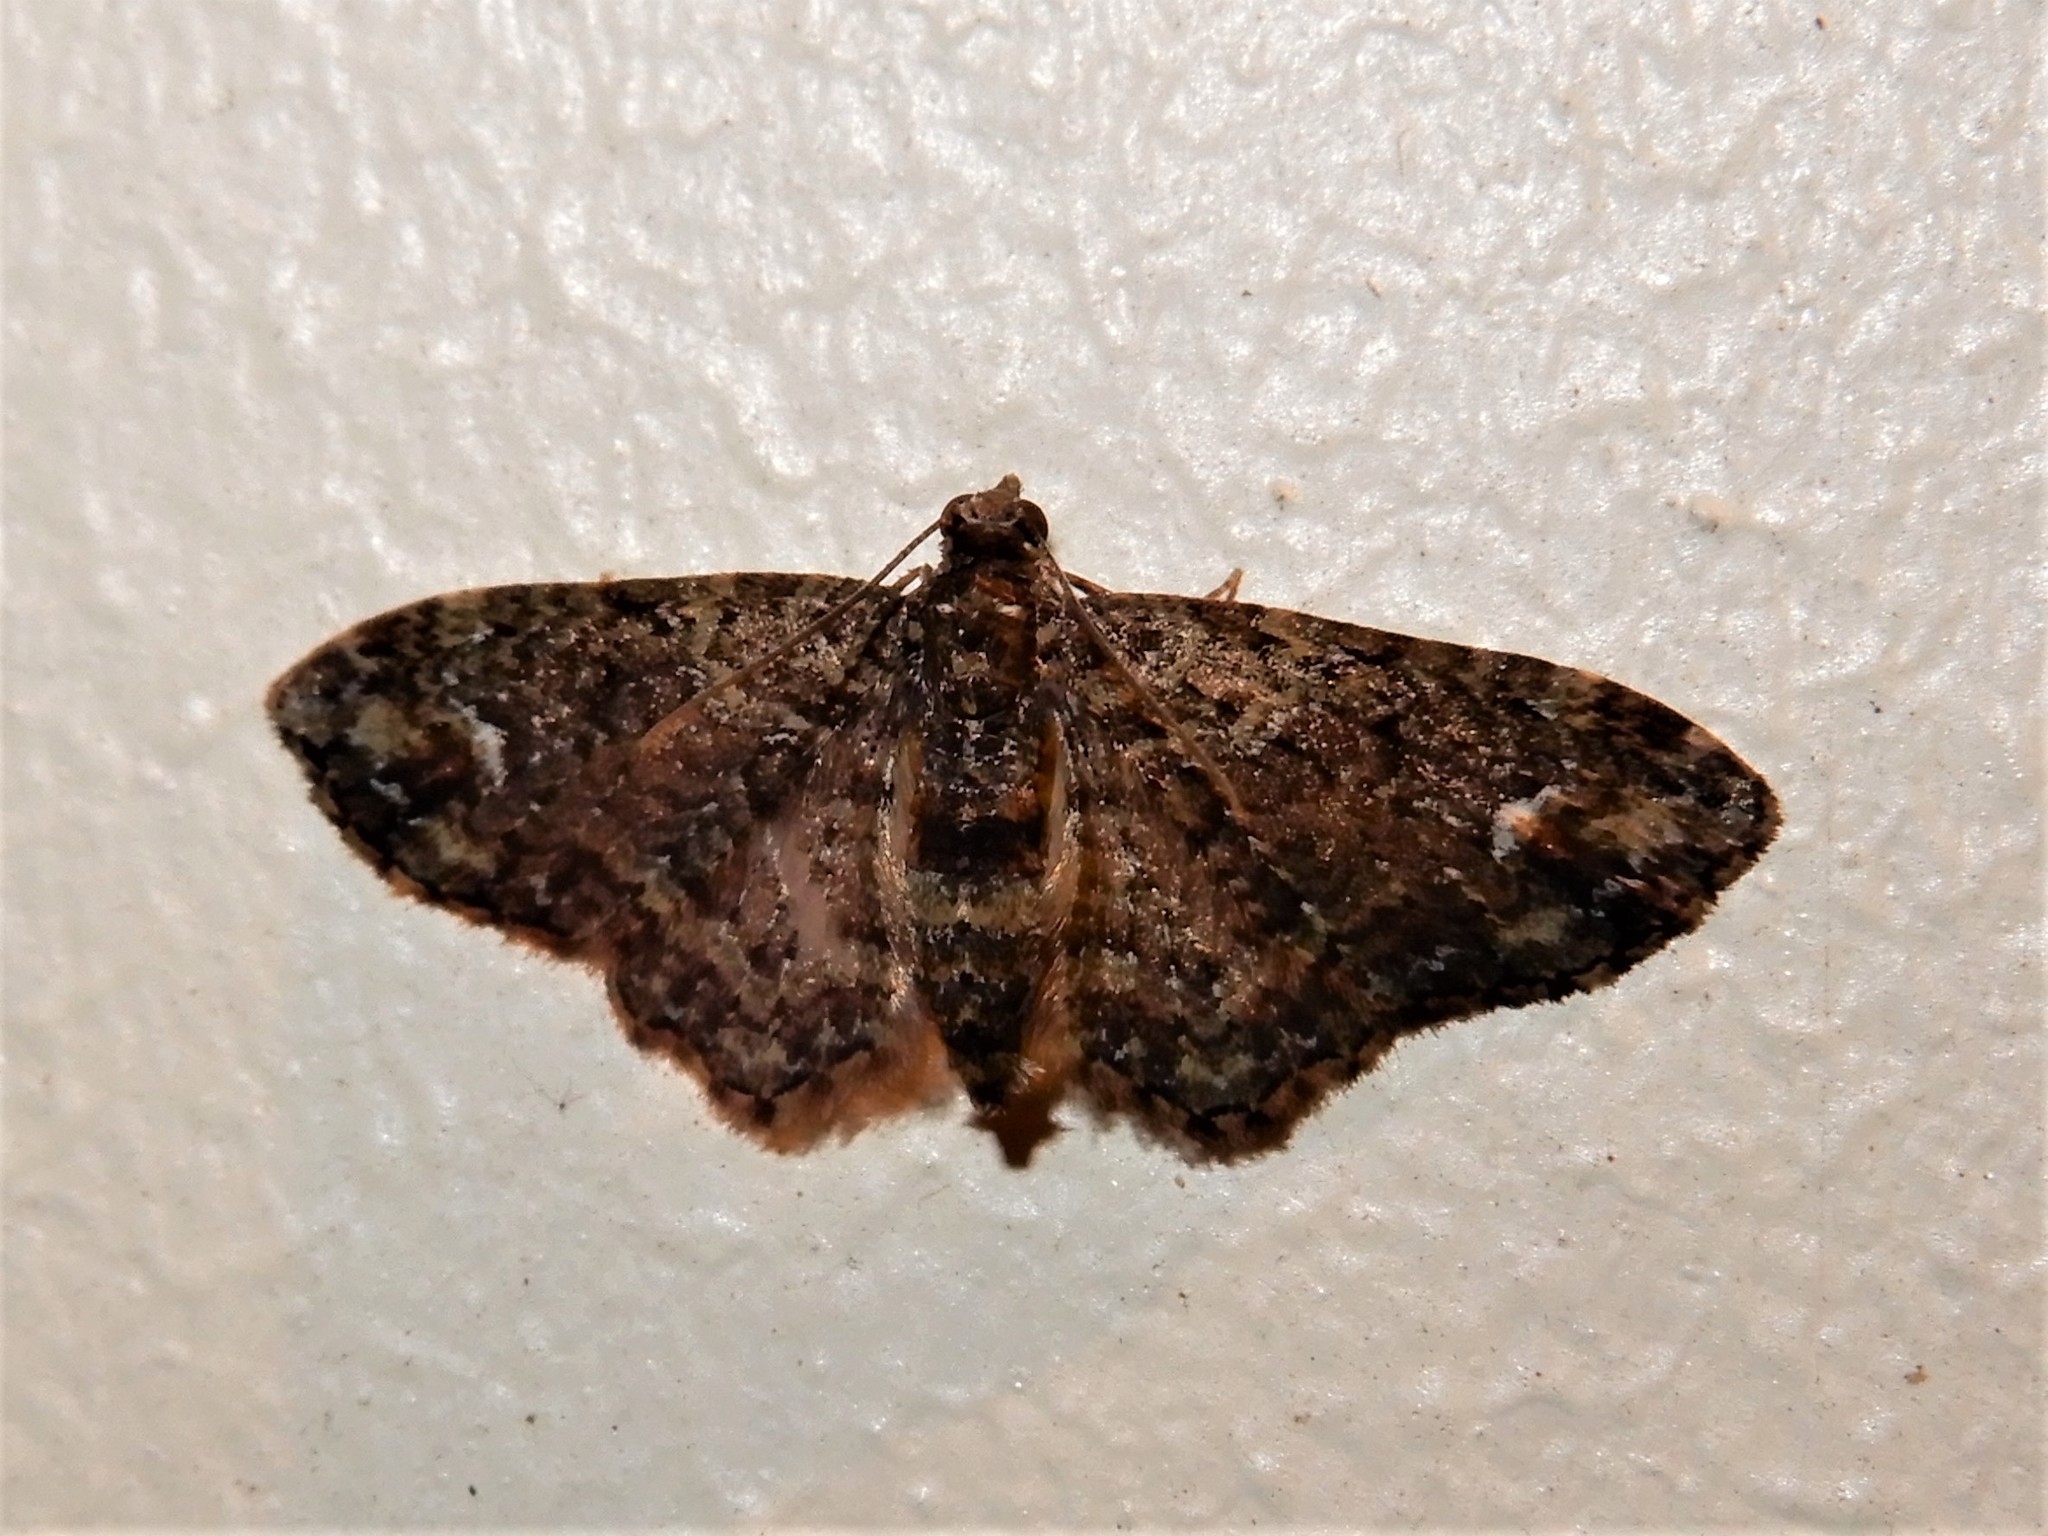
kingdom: Animalia
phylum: Arthropoda
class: Insecta
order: Lepidoptera
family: Geometridae
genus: Pasiphilodes
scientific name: Pasiphilodes testulata
